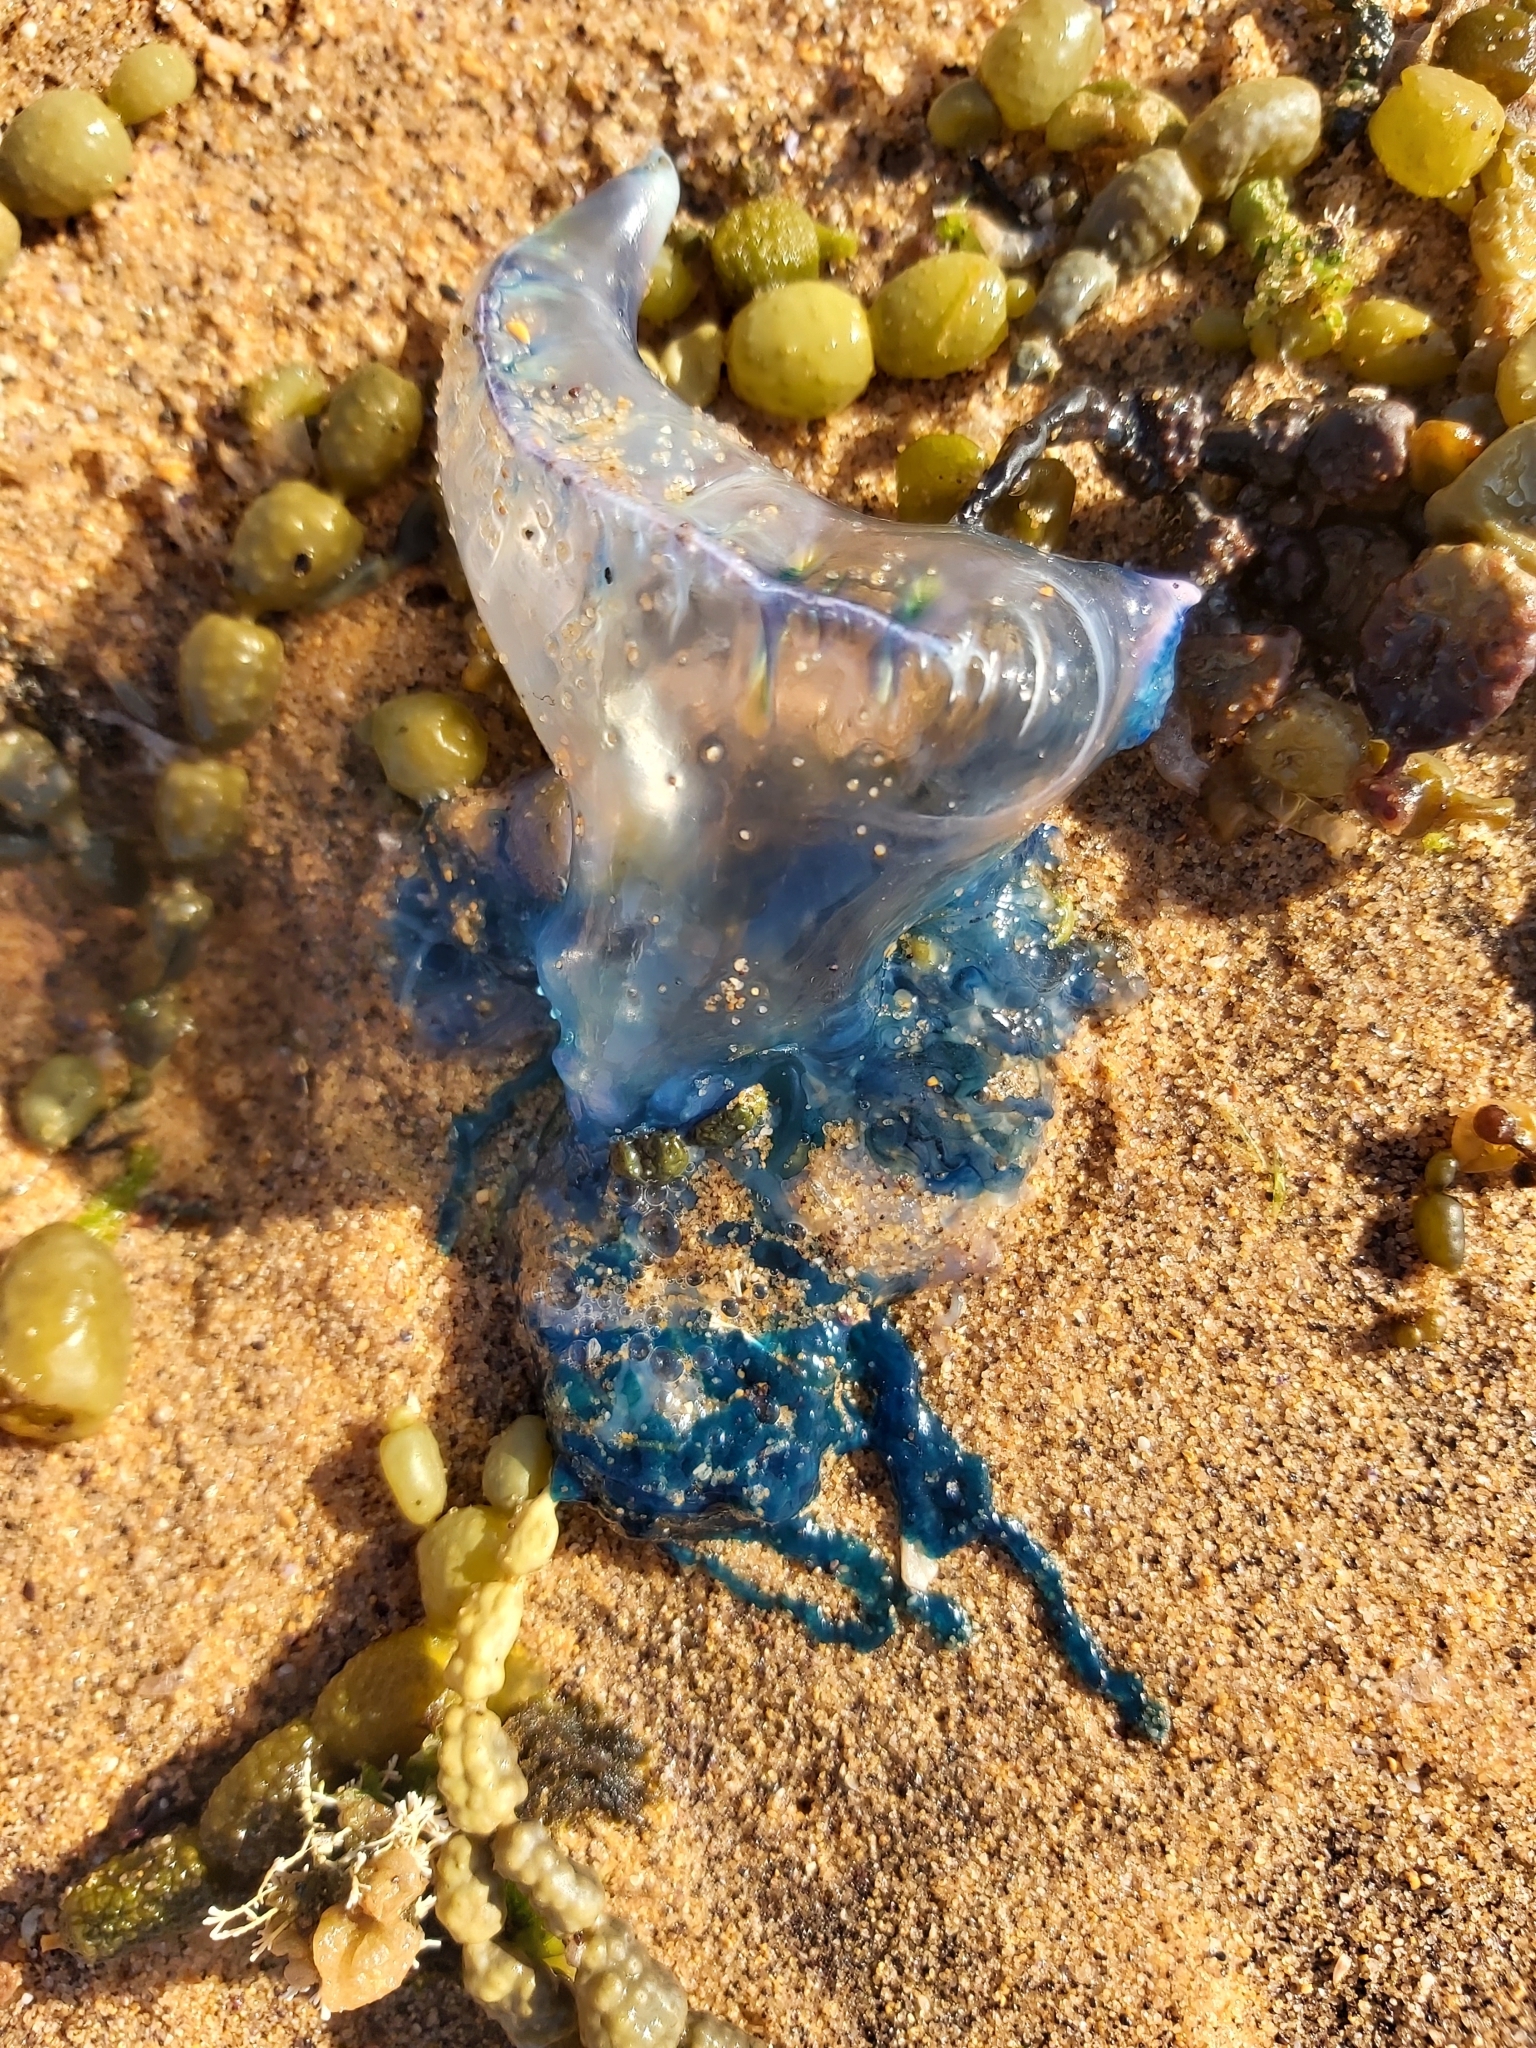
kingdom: Animalia
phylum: Cnidaria
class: Hydrozoa
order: Siphonophorae
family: Physaliidae
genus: Physalia
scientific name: Physalia physalis
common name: Portuguese man-of-war
